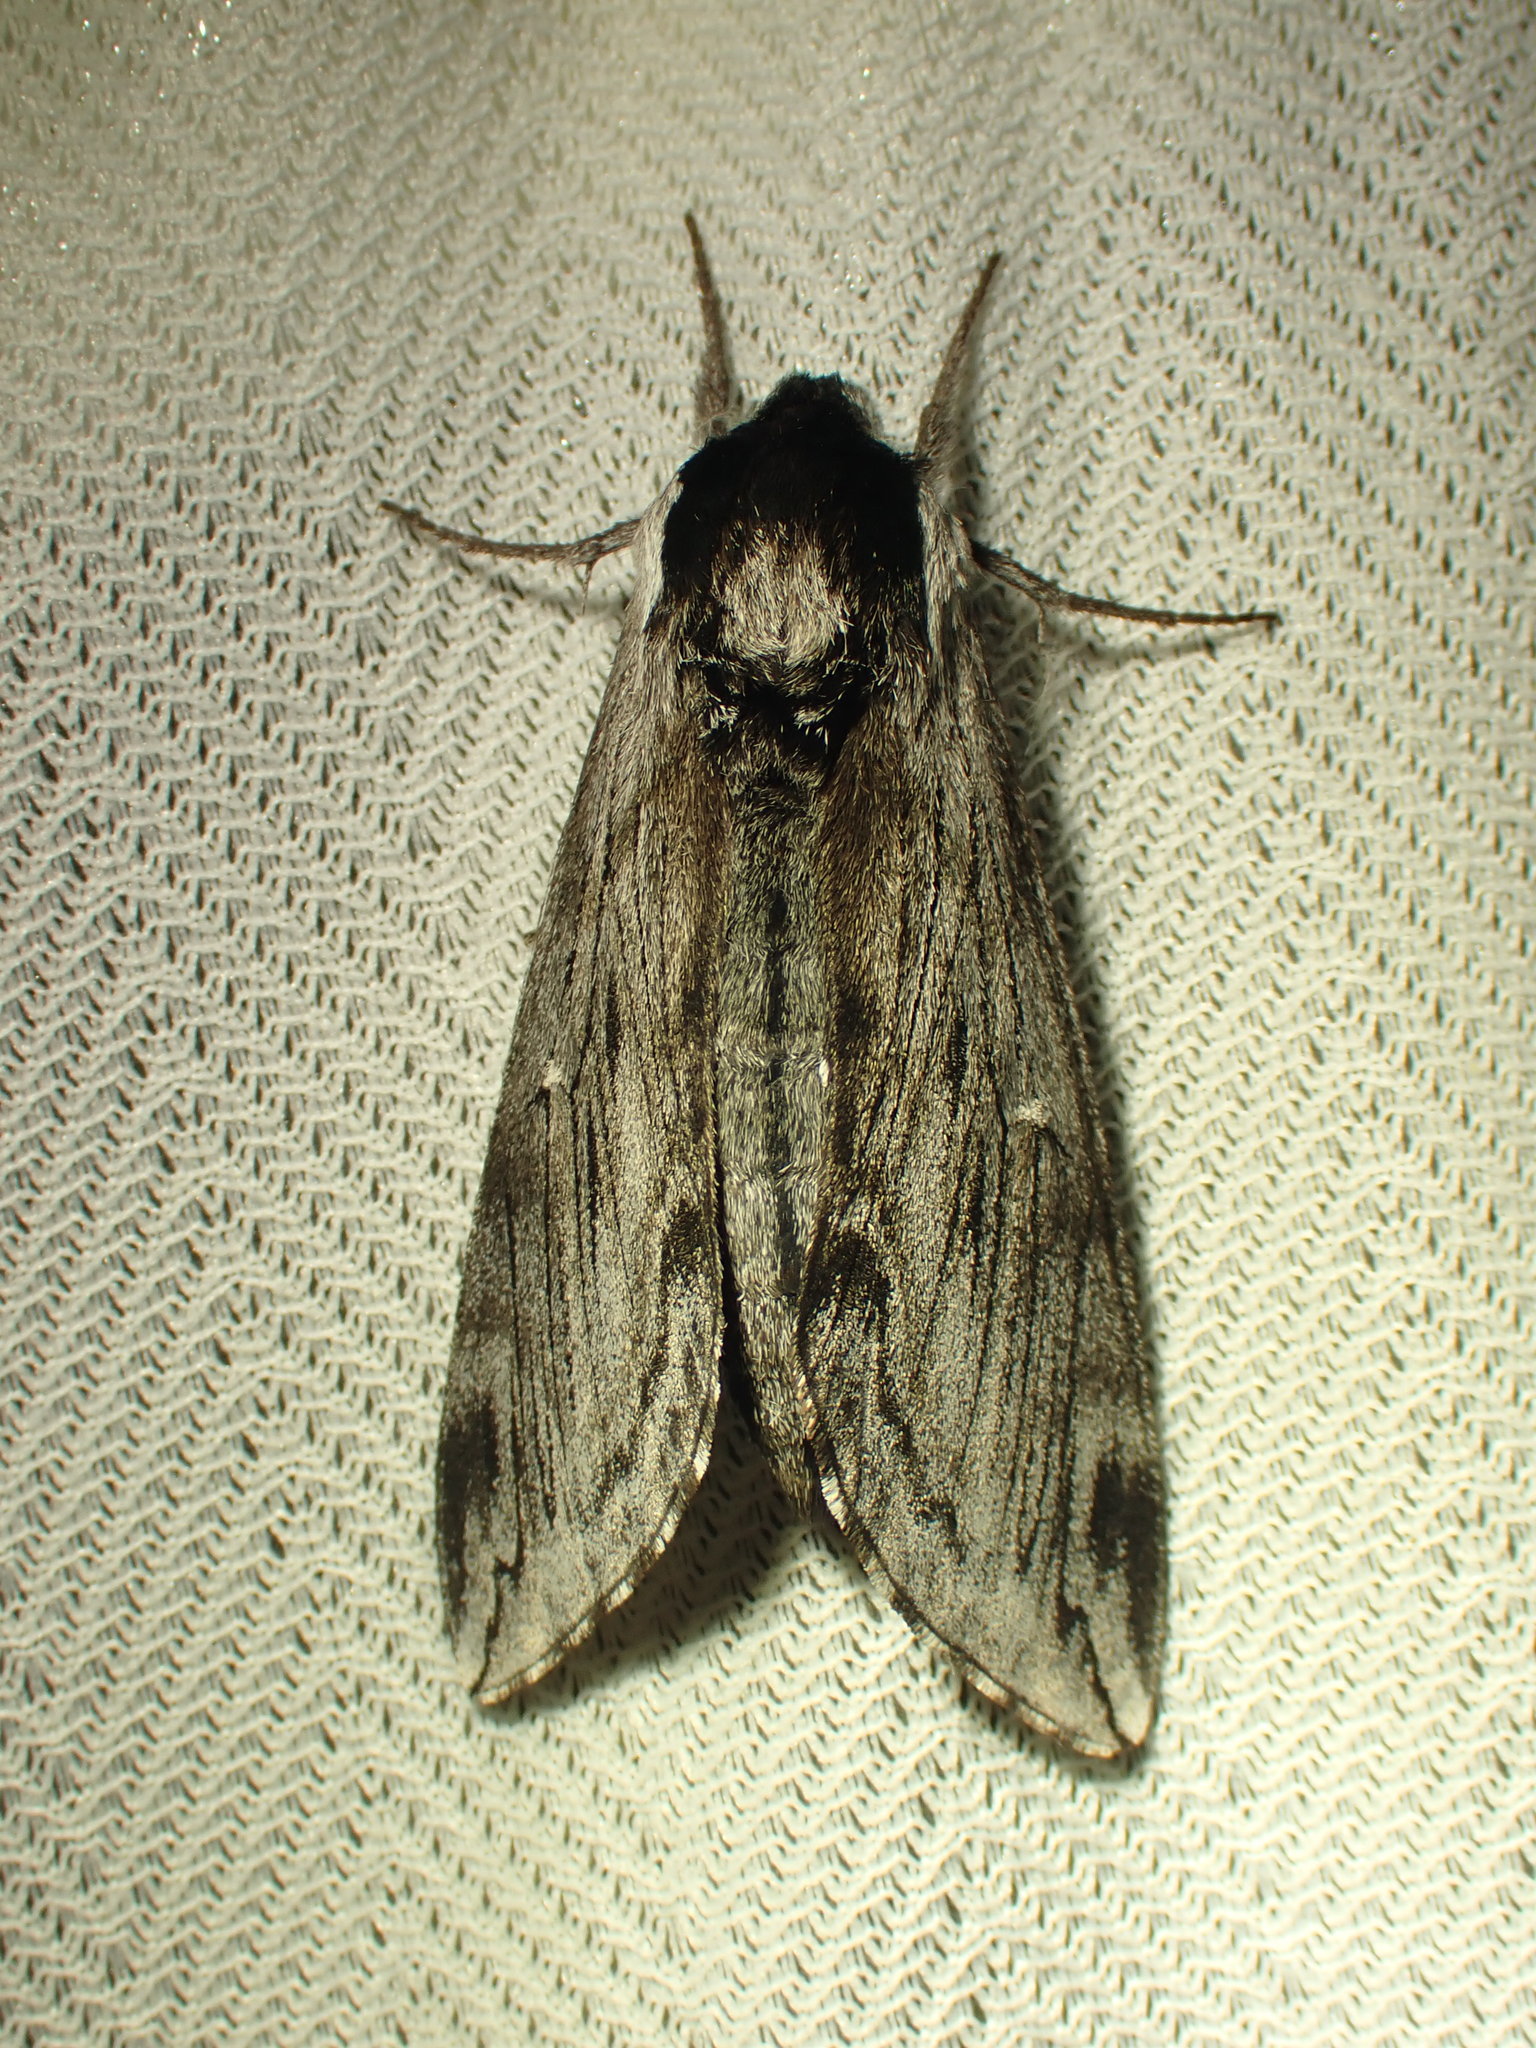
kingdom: Animalia
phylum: Arthropoda
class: Insecta
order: Lepidoptera
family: Sphingidae
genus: Sphinx
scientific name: Sphinx poecila
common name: Northern apple sphinx
